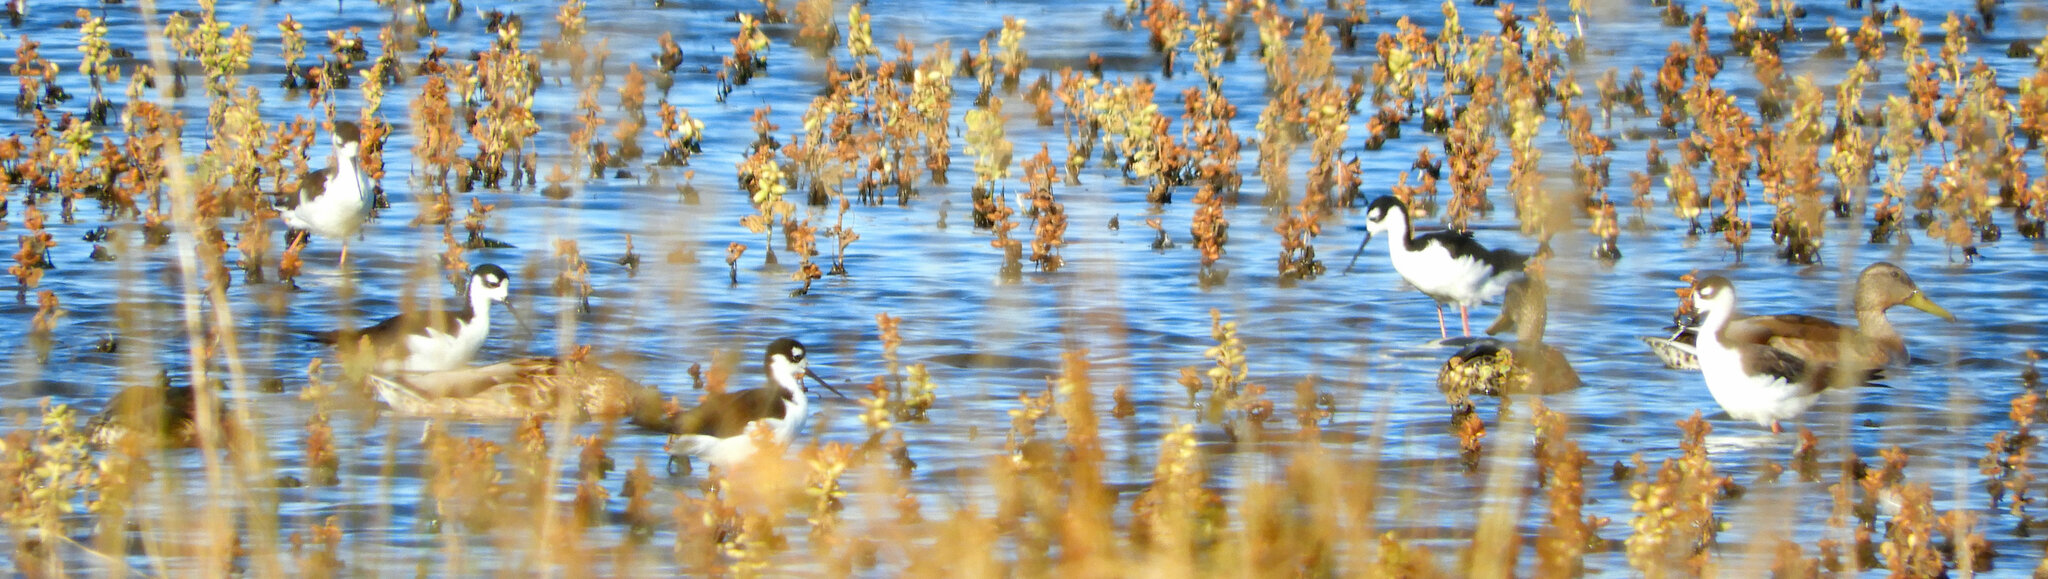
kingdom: Animalia
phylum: Chordata
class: Aves
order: Charadriiformes
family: Recurvirostridae
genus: Himantopus
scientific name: Himantopus mexicanus
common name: Black-necked stilt
